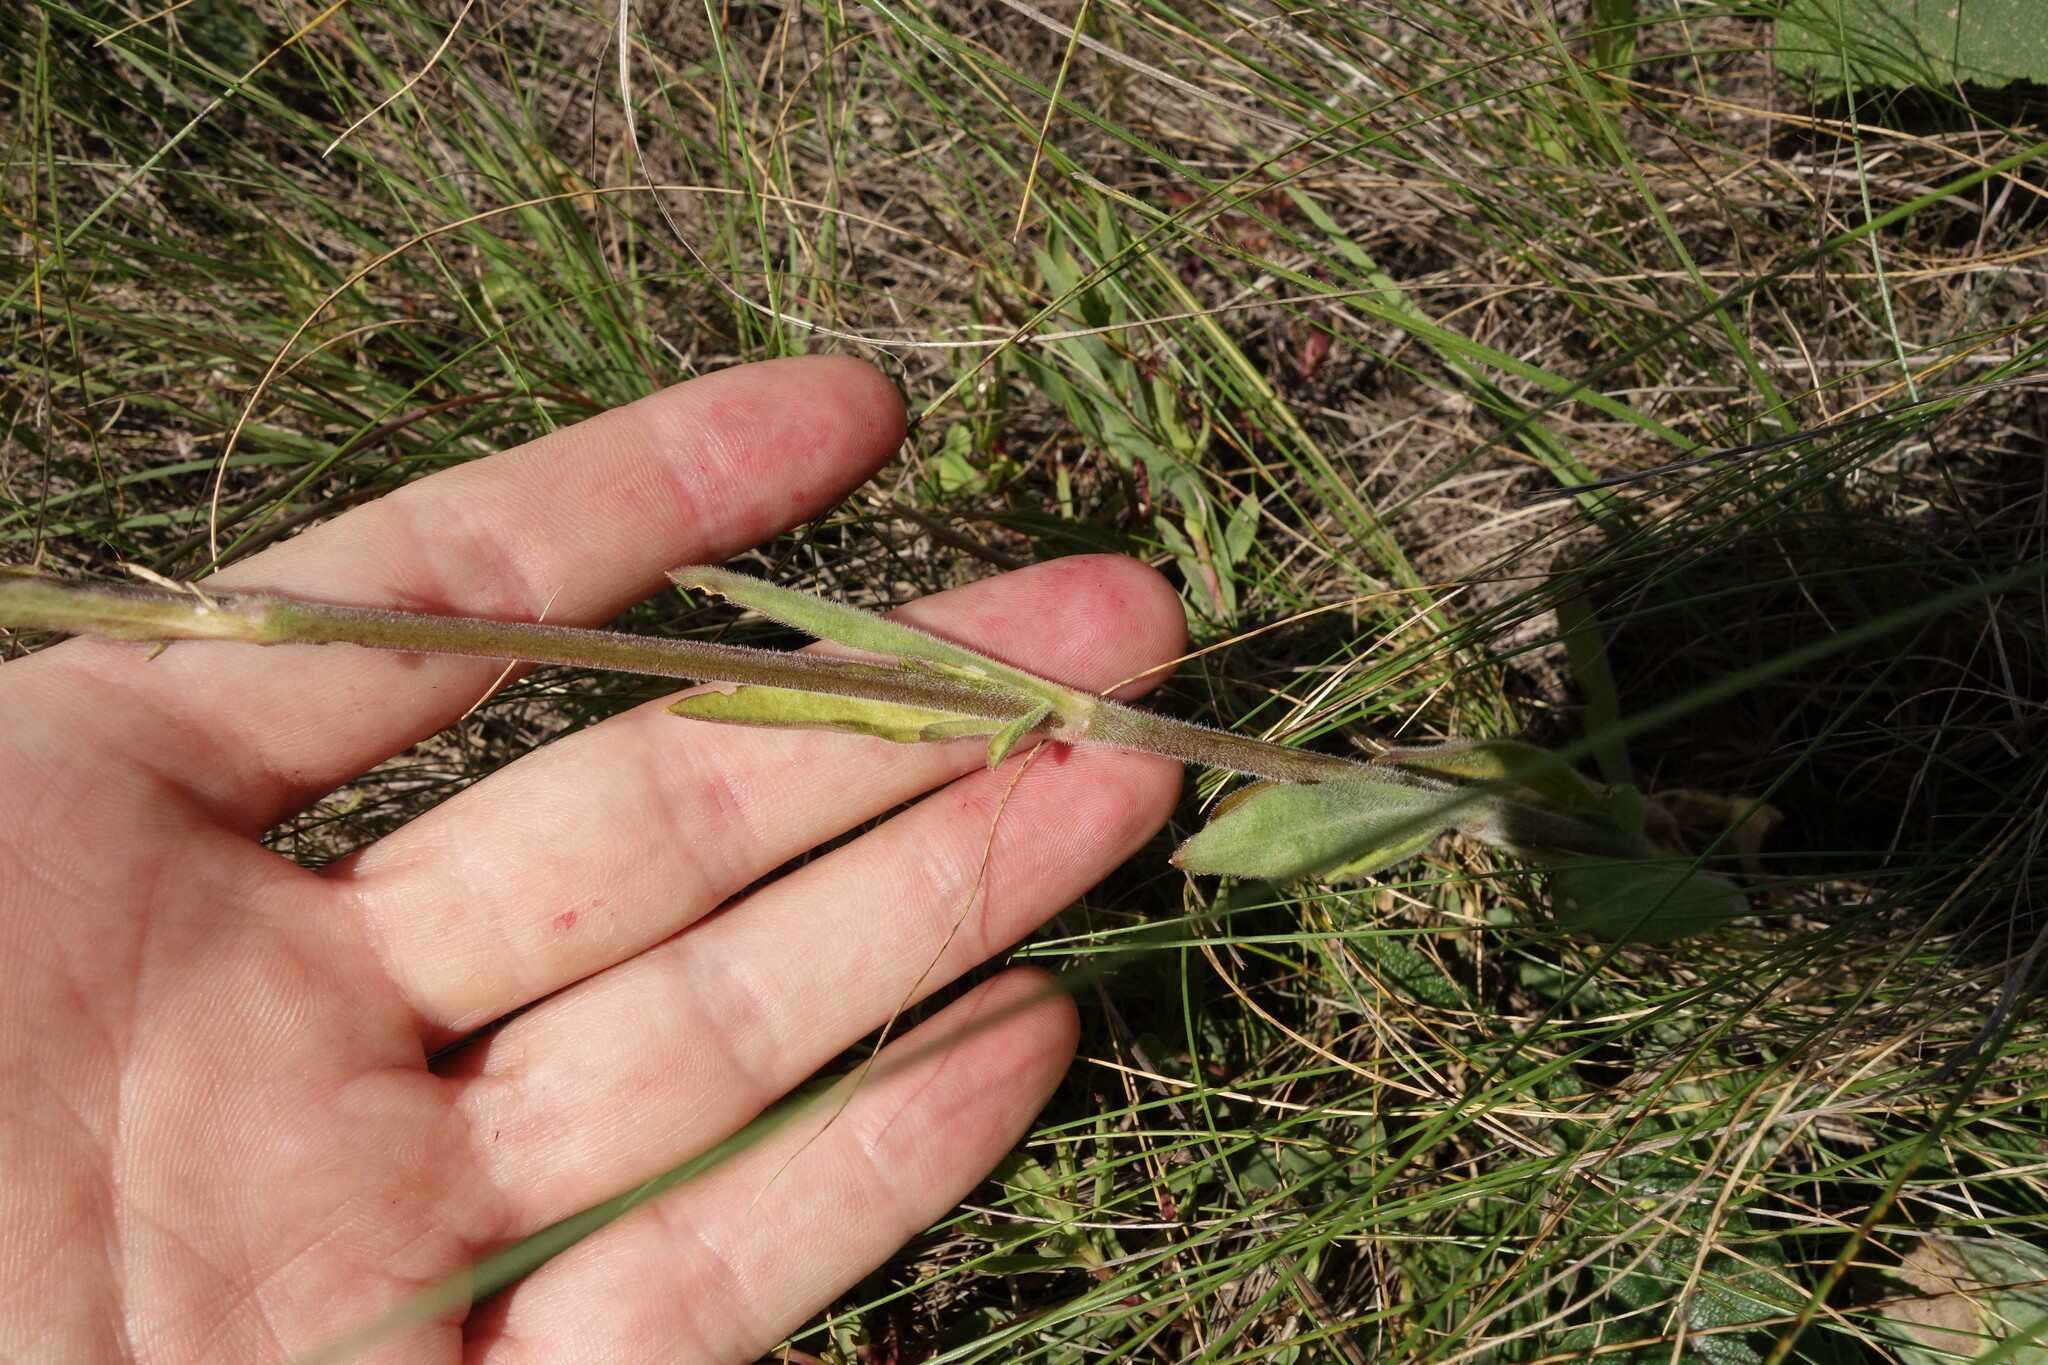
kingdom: Plantae
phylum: Tracheophyta
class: Magnoliopsida
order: Caryophyllales
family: Caryophyllaceae
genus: Silene
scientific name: Silene borysthenica
